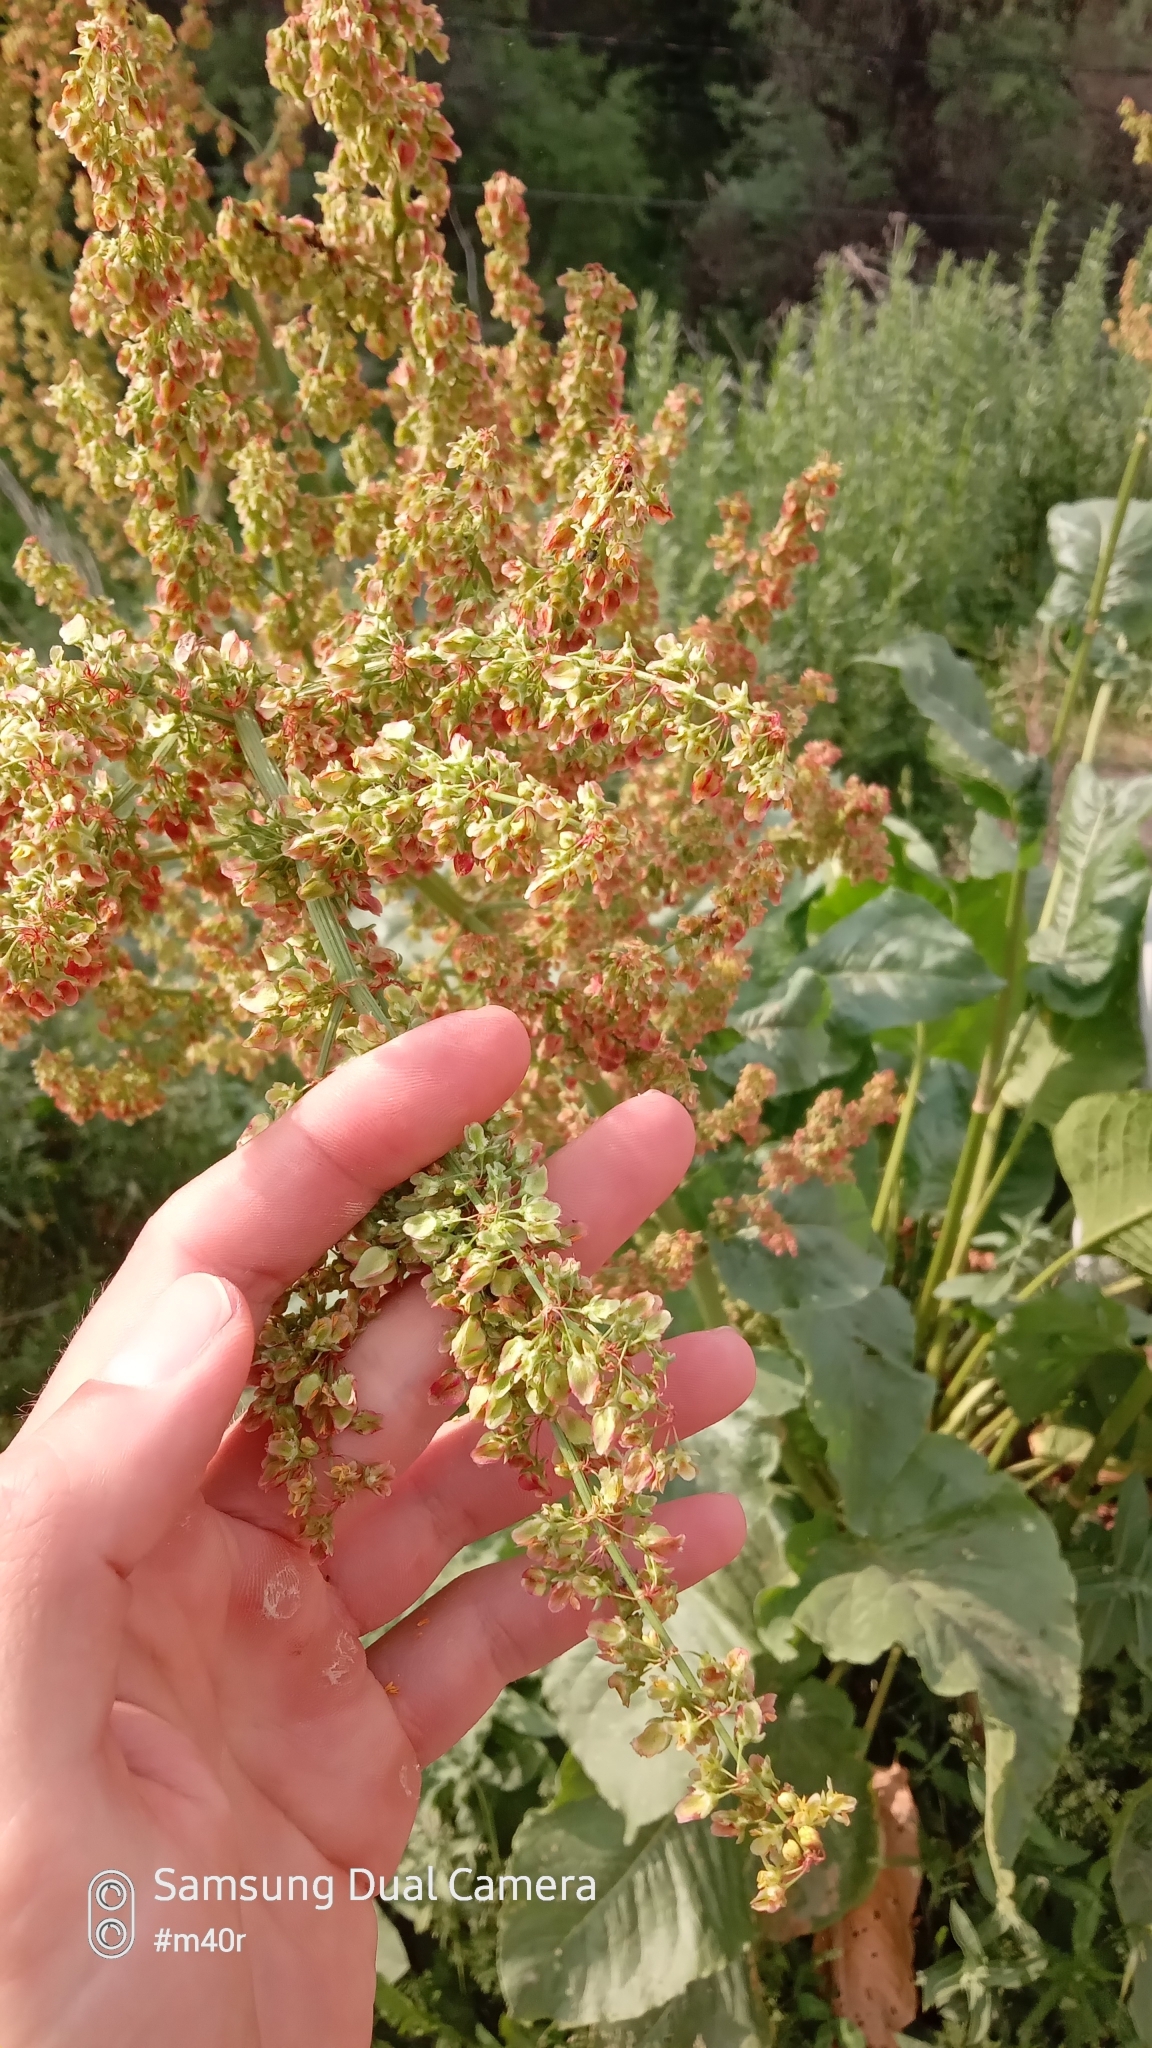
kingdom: Plantae
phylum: Tracheophyta
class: Magnoliopsida
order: Caryophyllales
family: Polygonaceae
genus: Rumex
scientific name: Rumex tianschanicus
